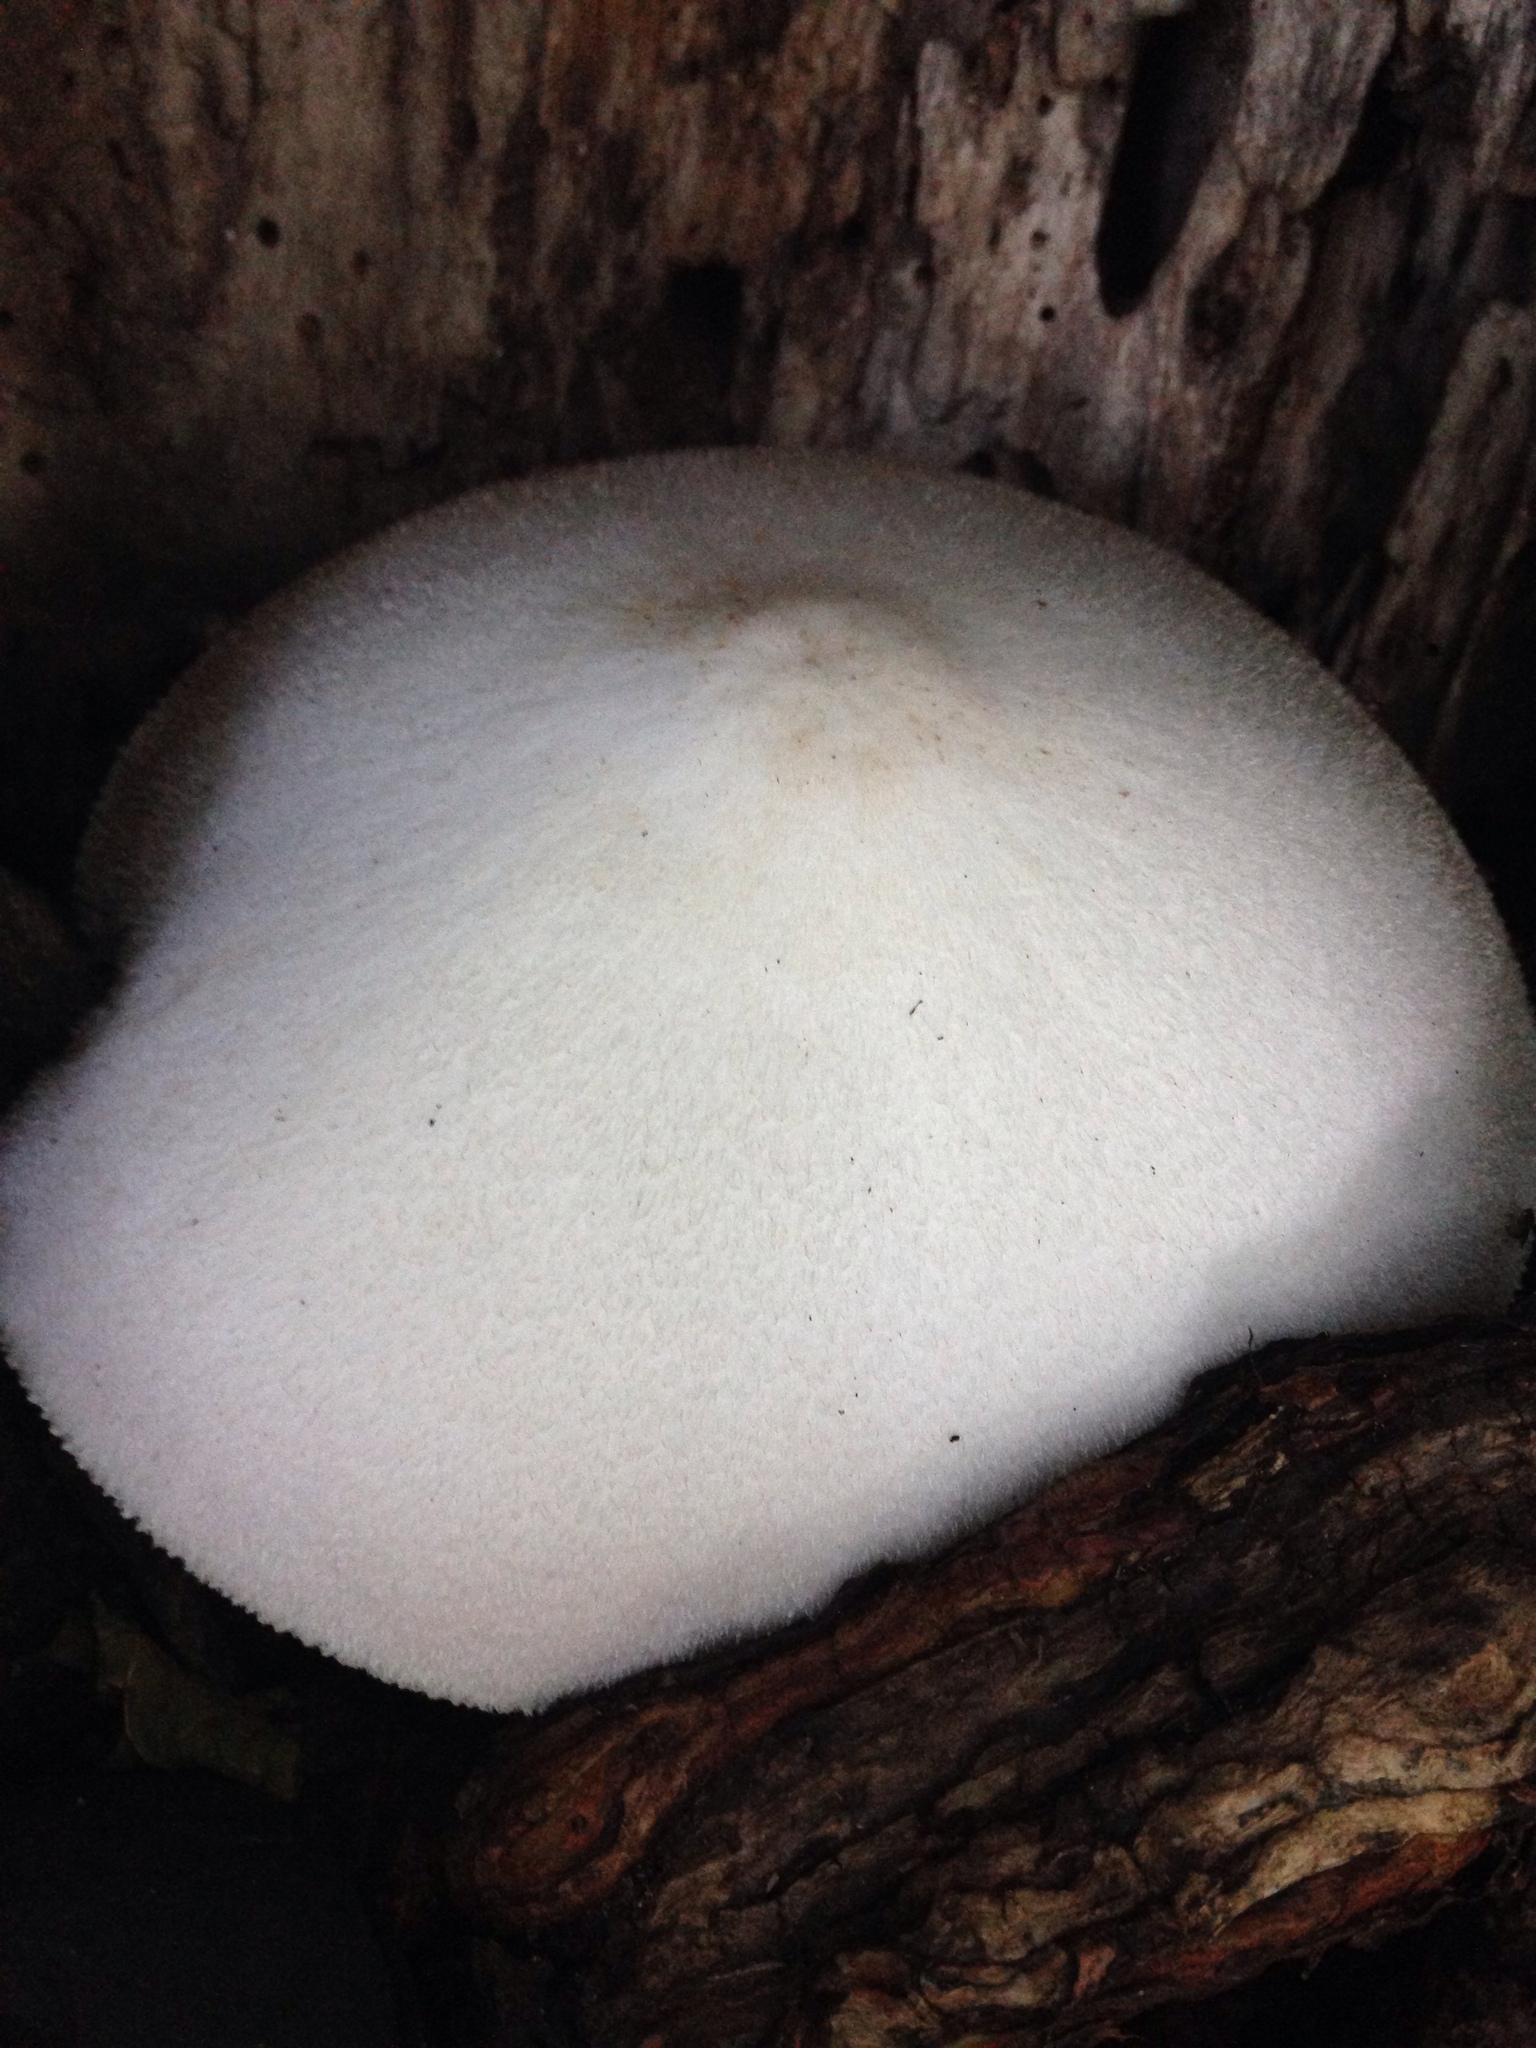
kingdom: Fungi
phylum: Basidiomycota
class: Agaricomycetes
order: Agaricales
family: Pluteaceae
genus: Volvariella
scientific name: Volvariella bombycina
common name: Silky rosegill
